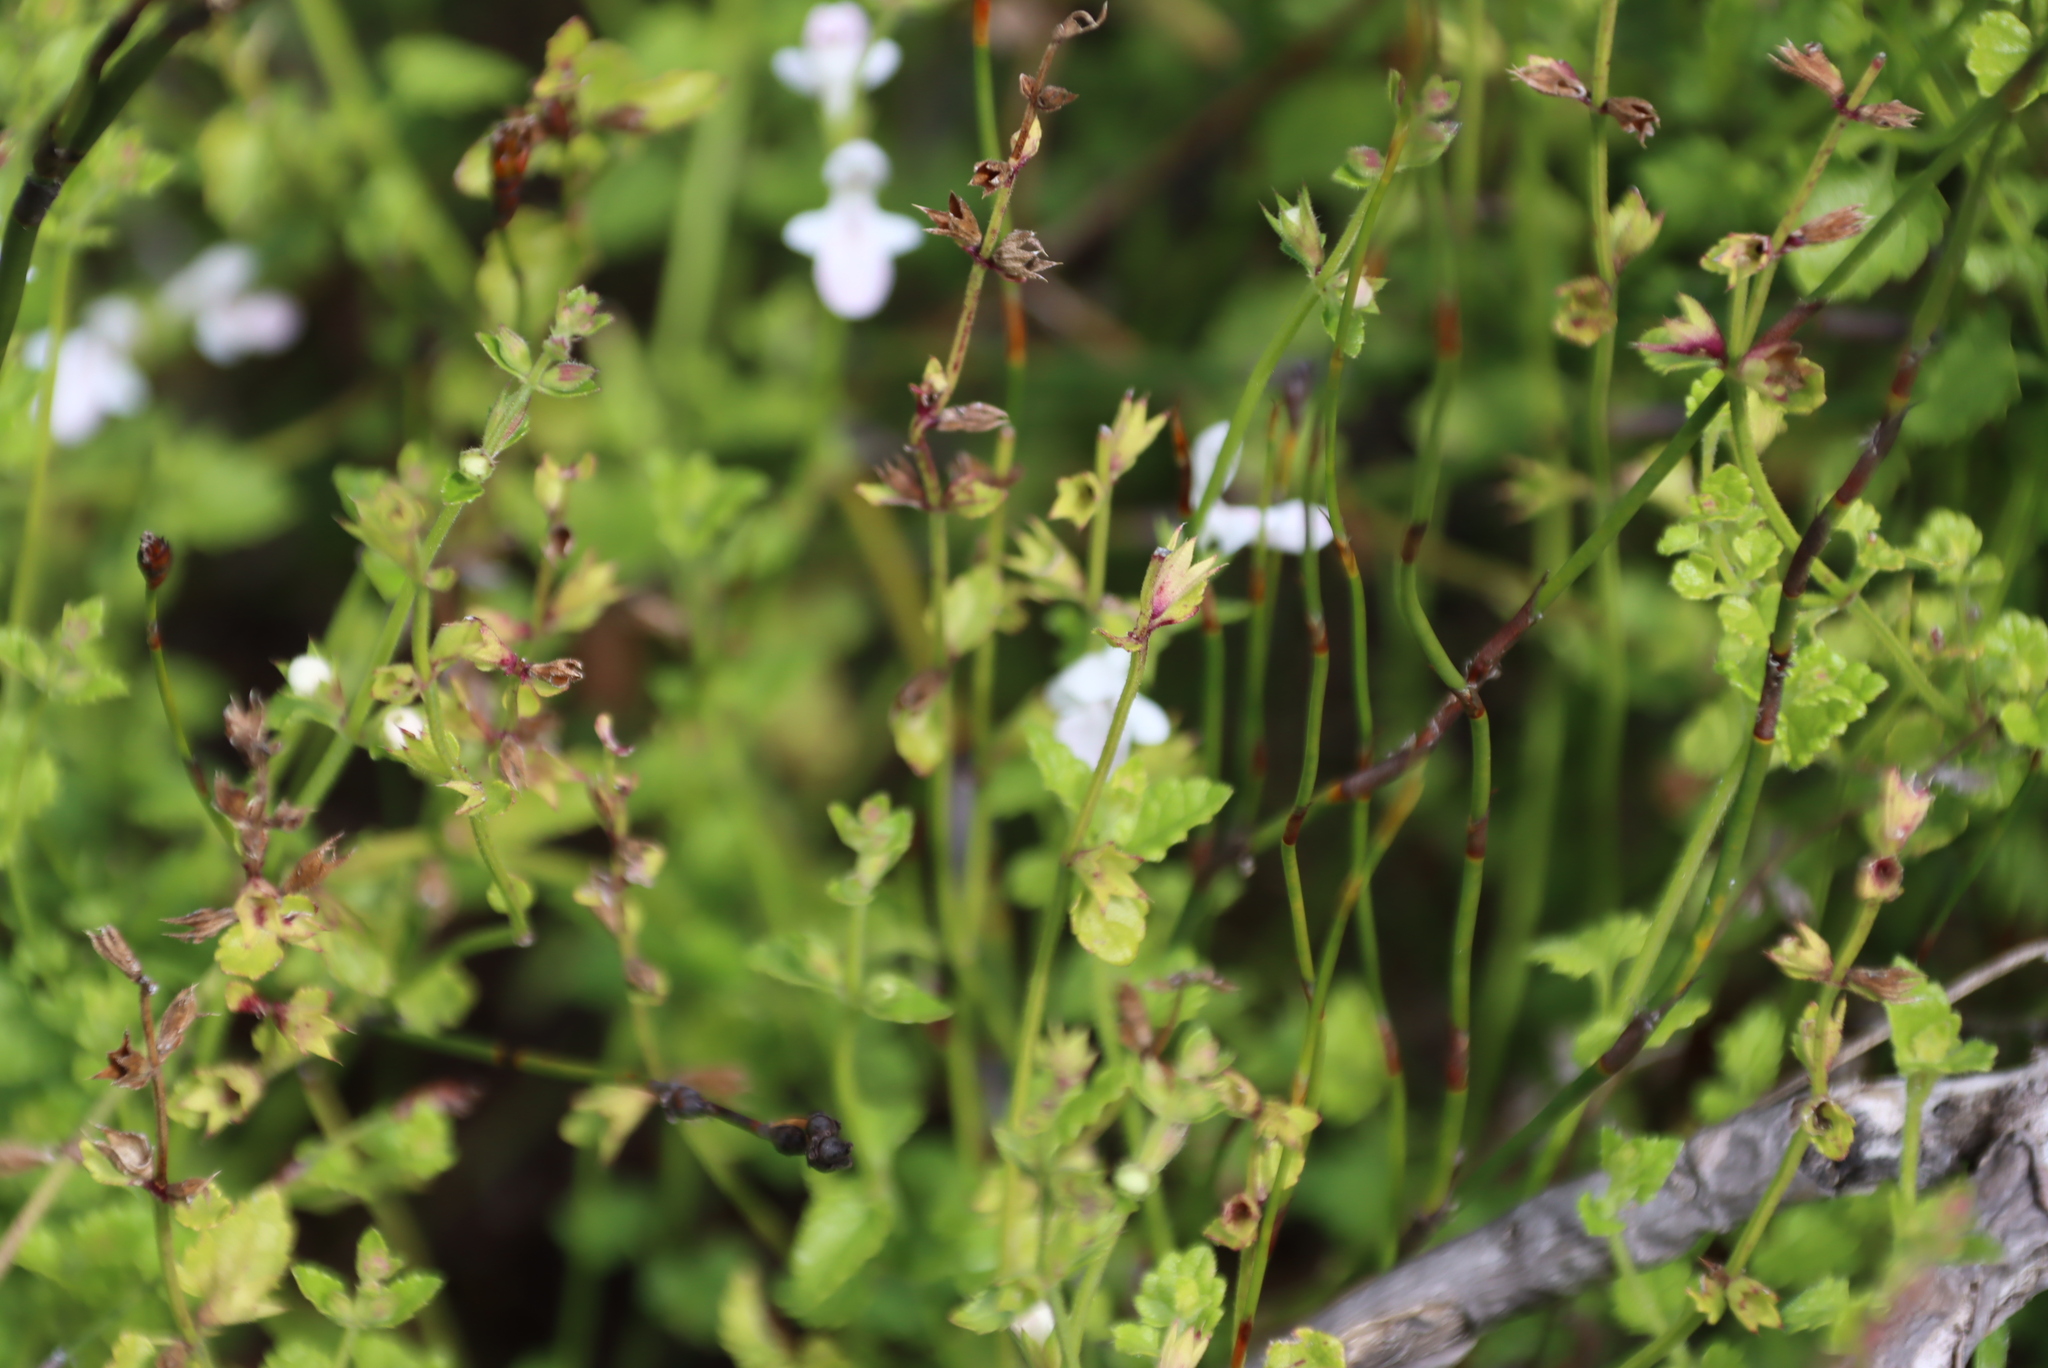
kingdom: Plantae
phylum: Tracheophyta
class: Magnoliopsida
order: Lamiales
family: Lamiaceae
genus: Stachys
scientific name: Stachys aethiopica
